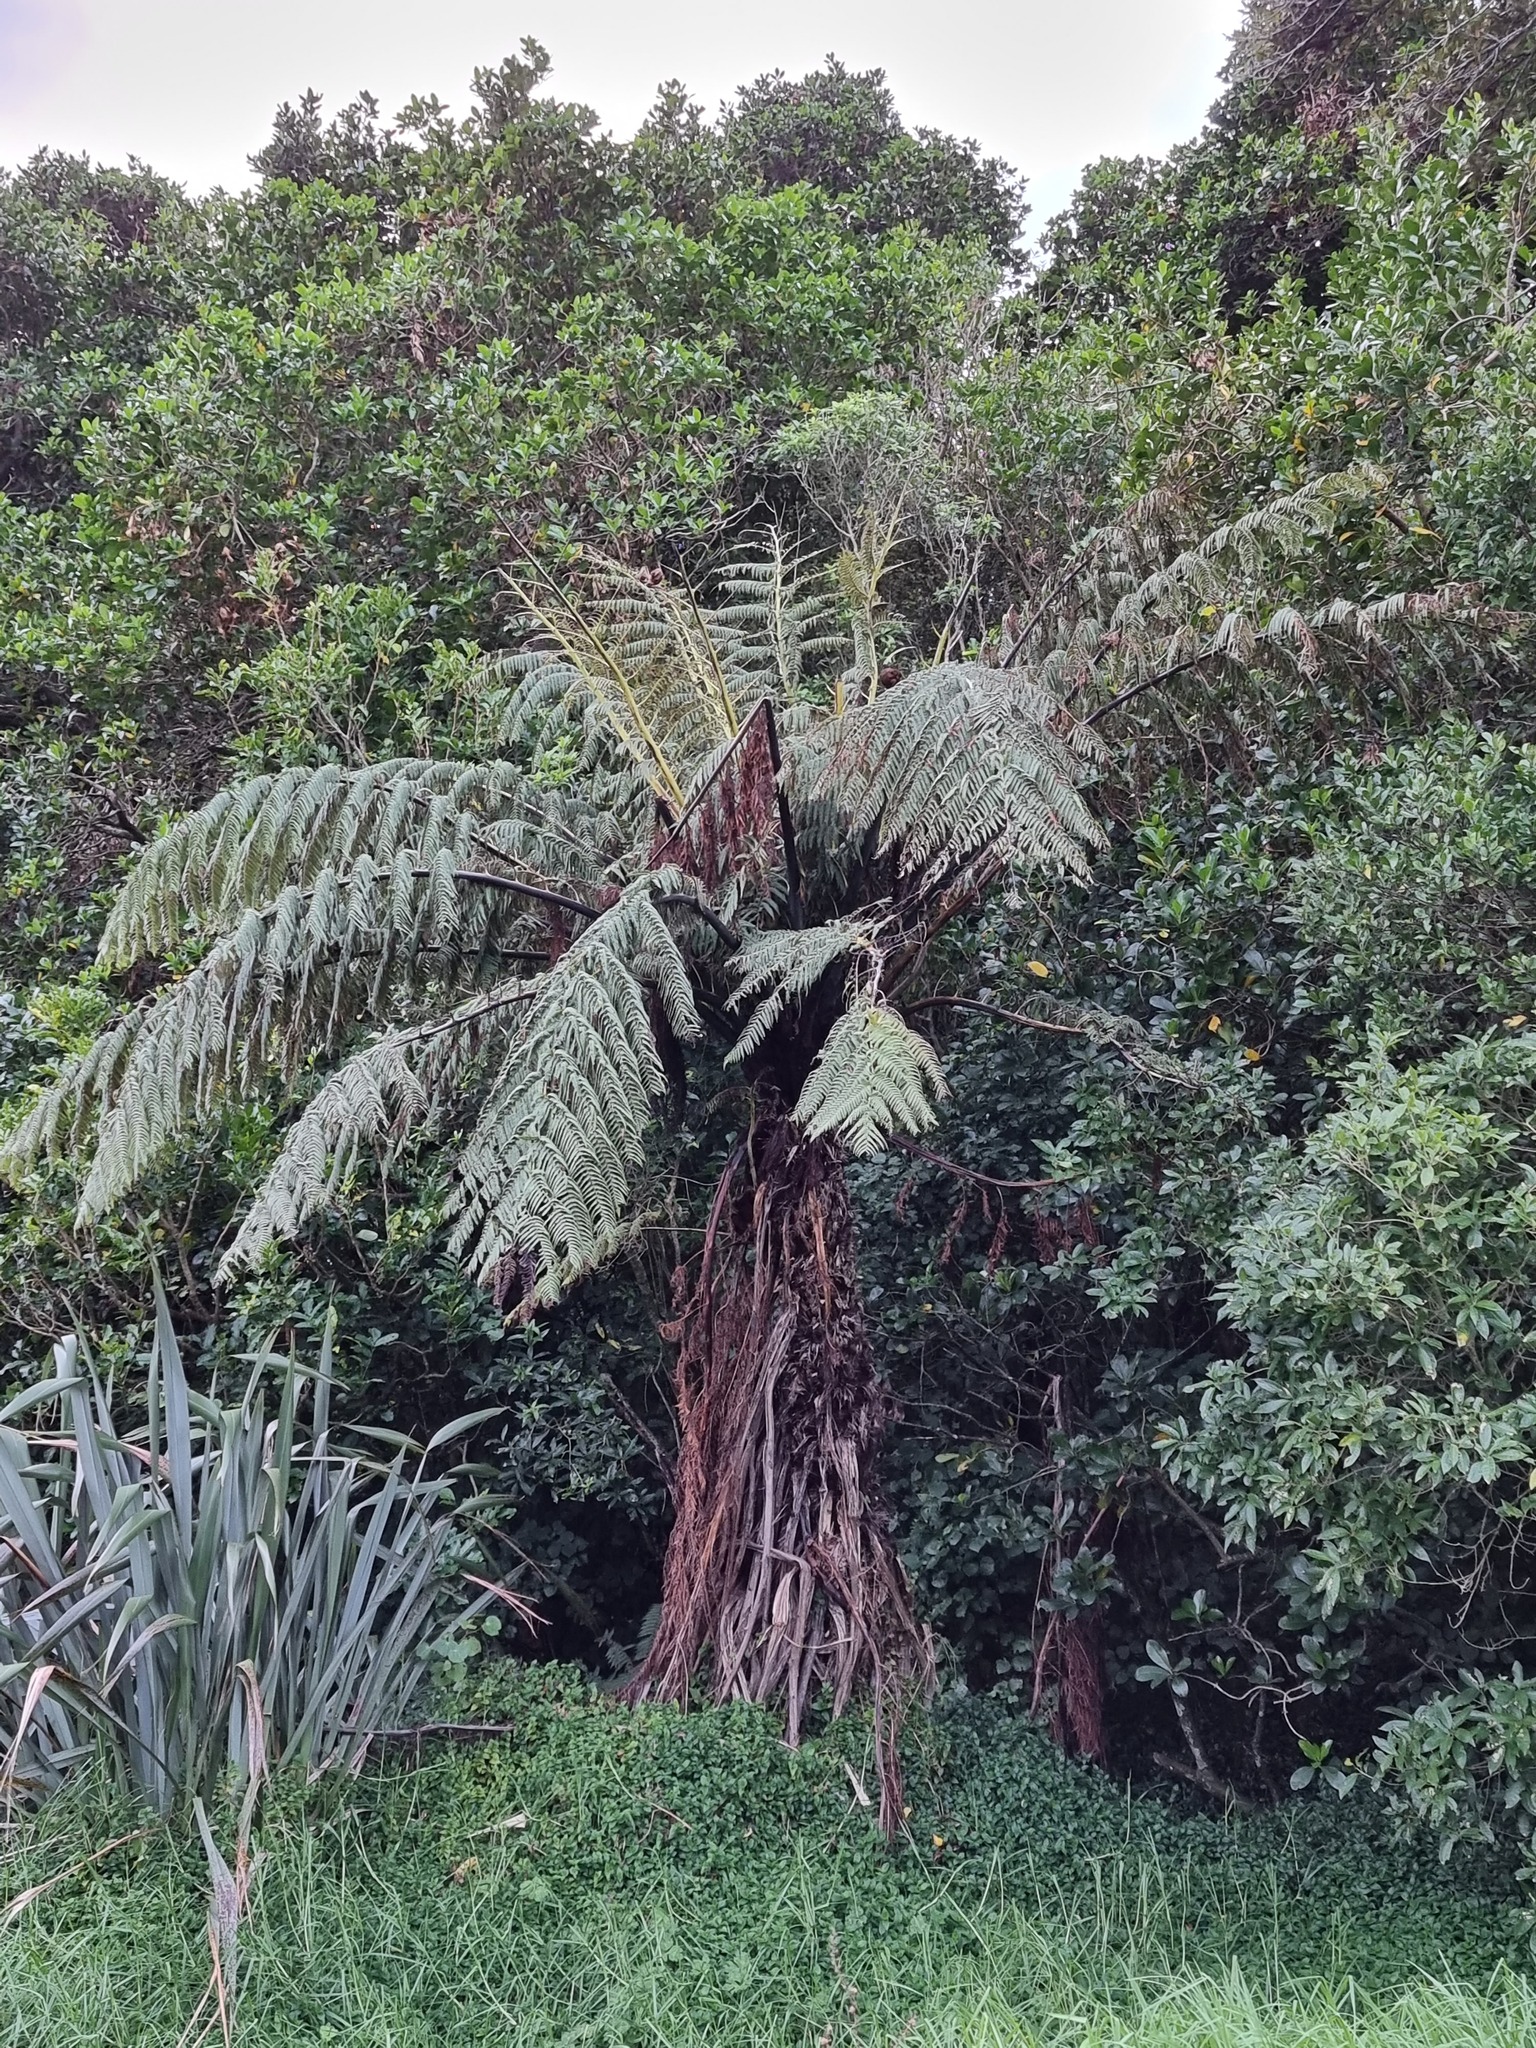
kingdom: Plantae
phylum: Tracheophyta
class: Polypodiopsida
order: Cyatheales
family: Cyatheaceae
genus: Sphaeropteris
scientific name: Sphaeropteris medullaris
